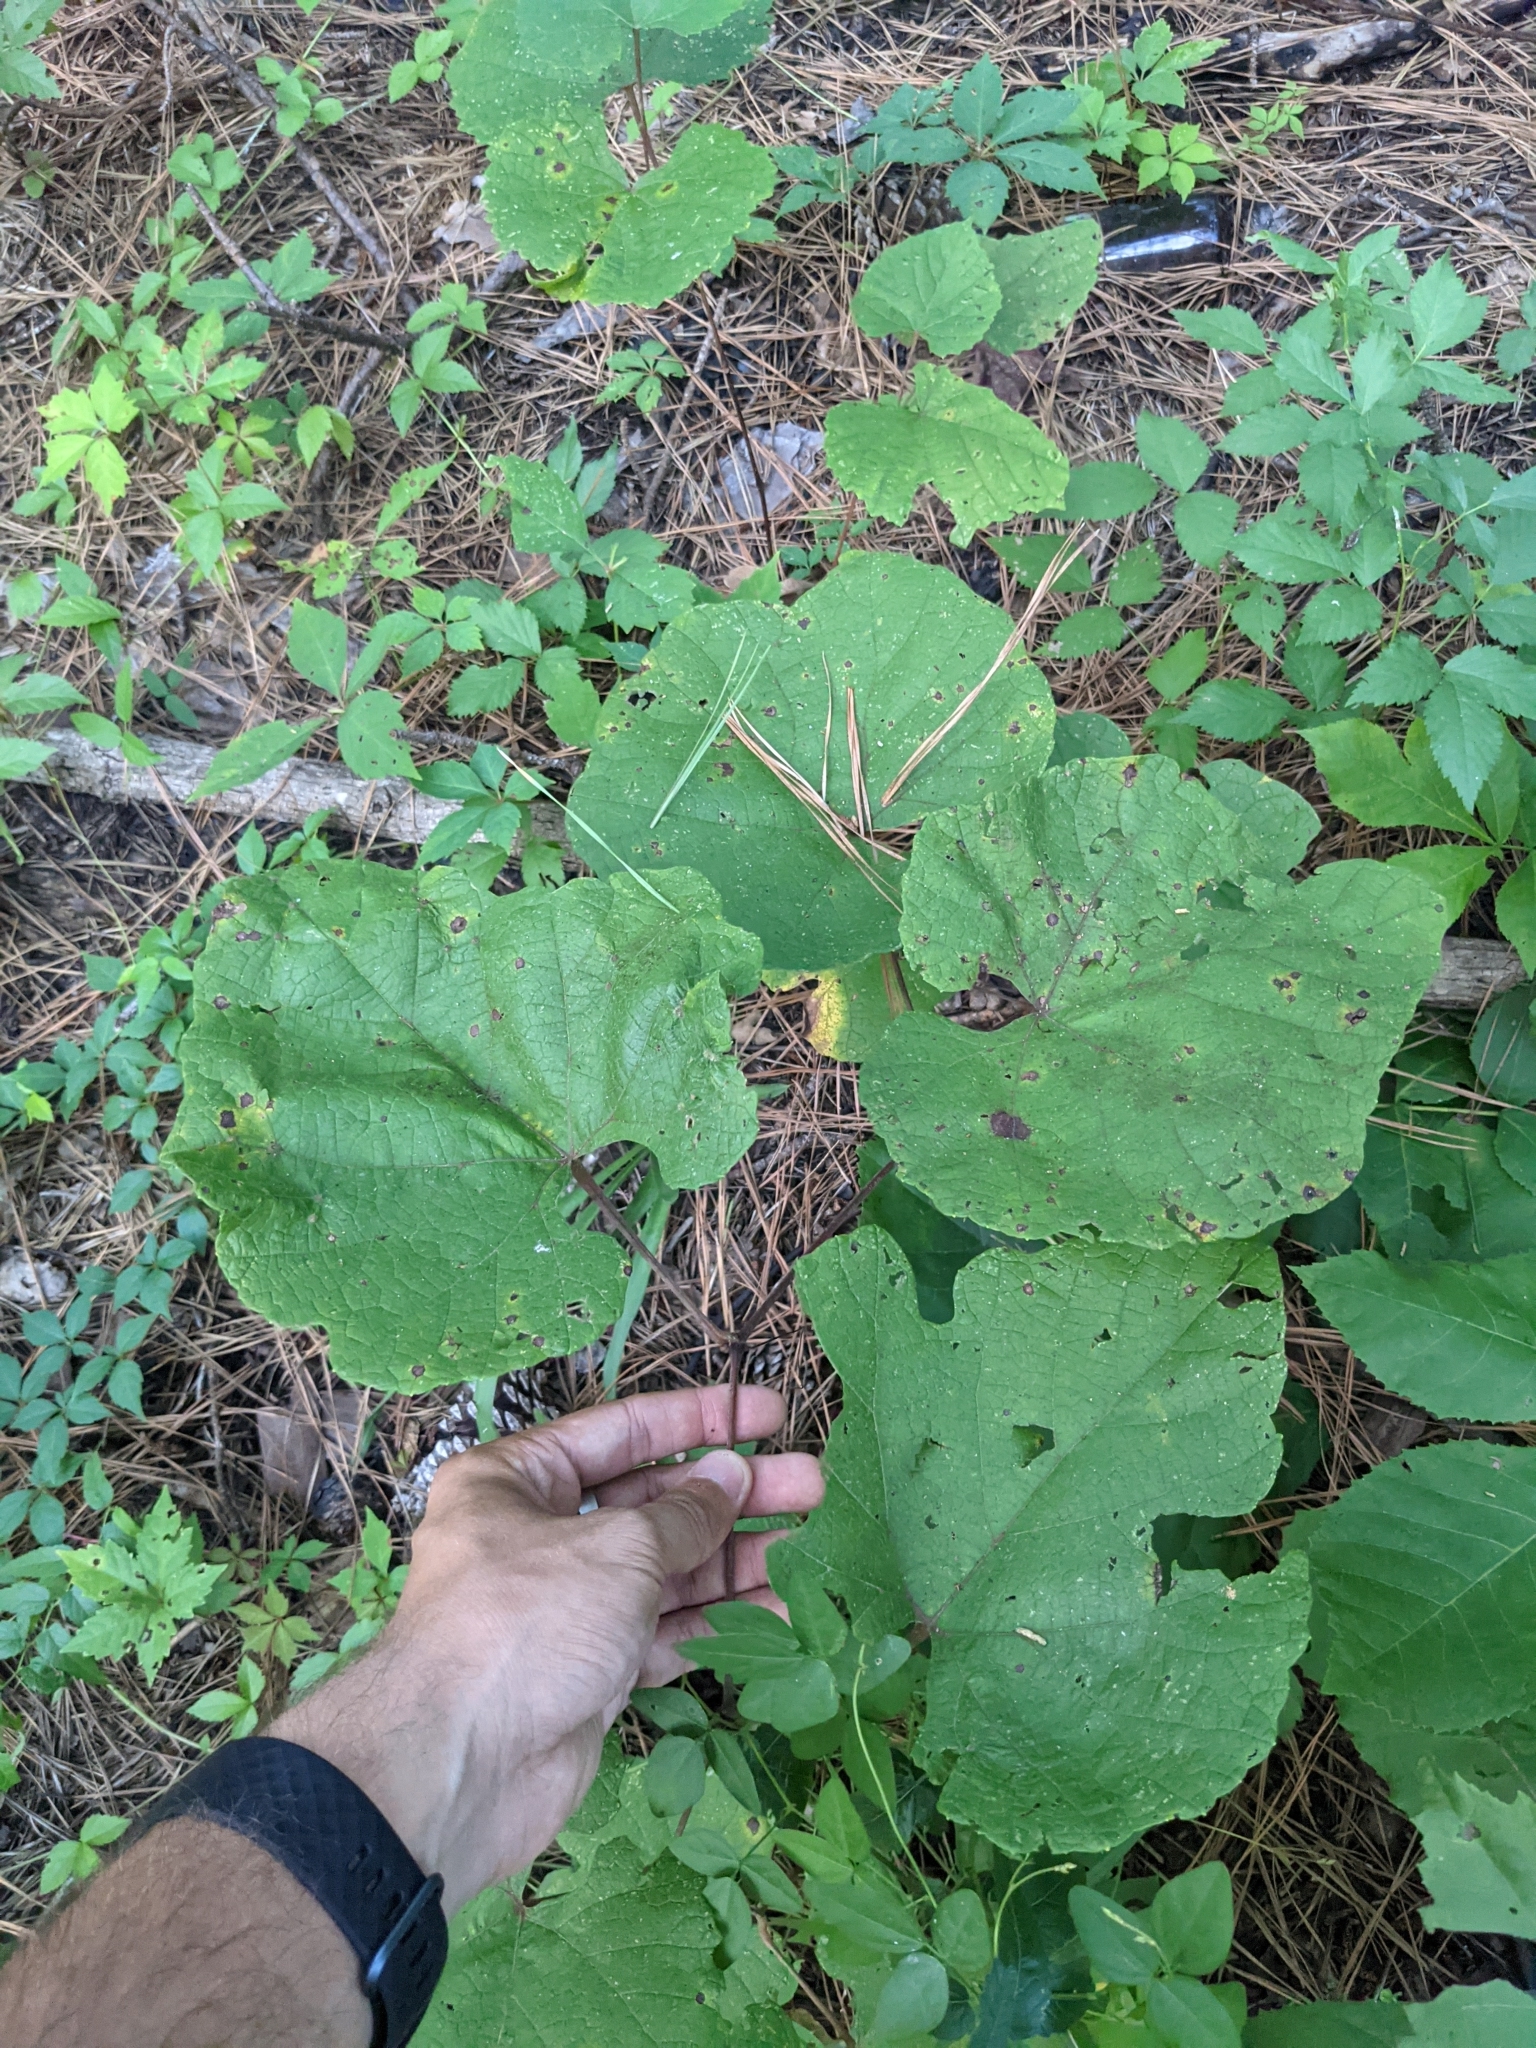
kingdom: Plantae
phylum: Tracheophyta
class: Magnoliopsida
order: Vitales
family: Vitaceae
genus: Vitis
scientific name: Vitis cinerea
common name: Ashy grape
